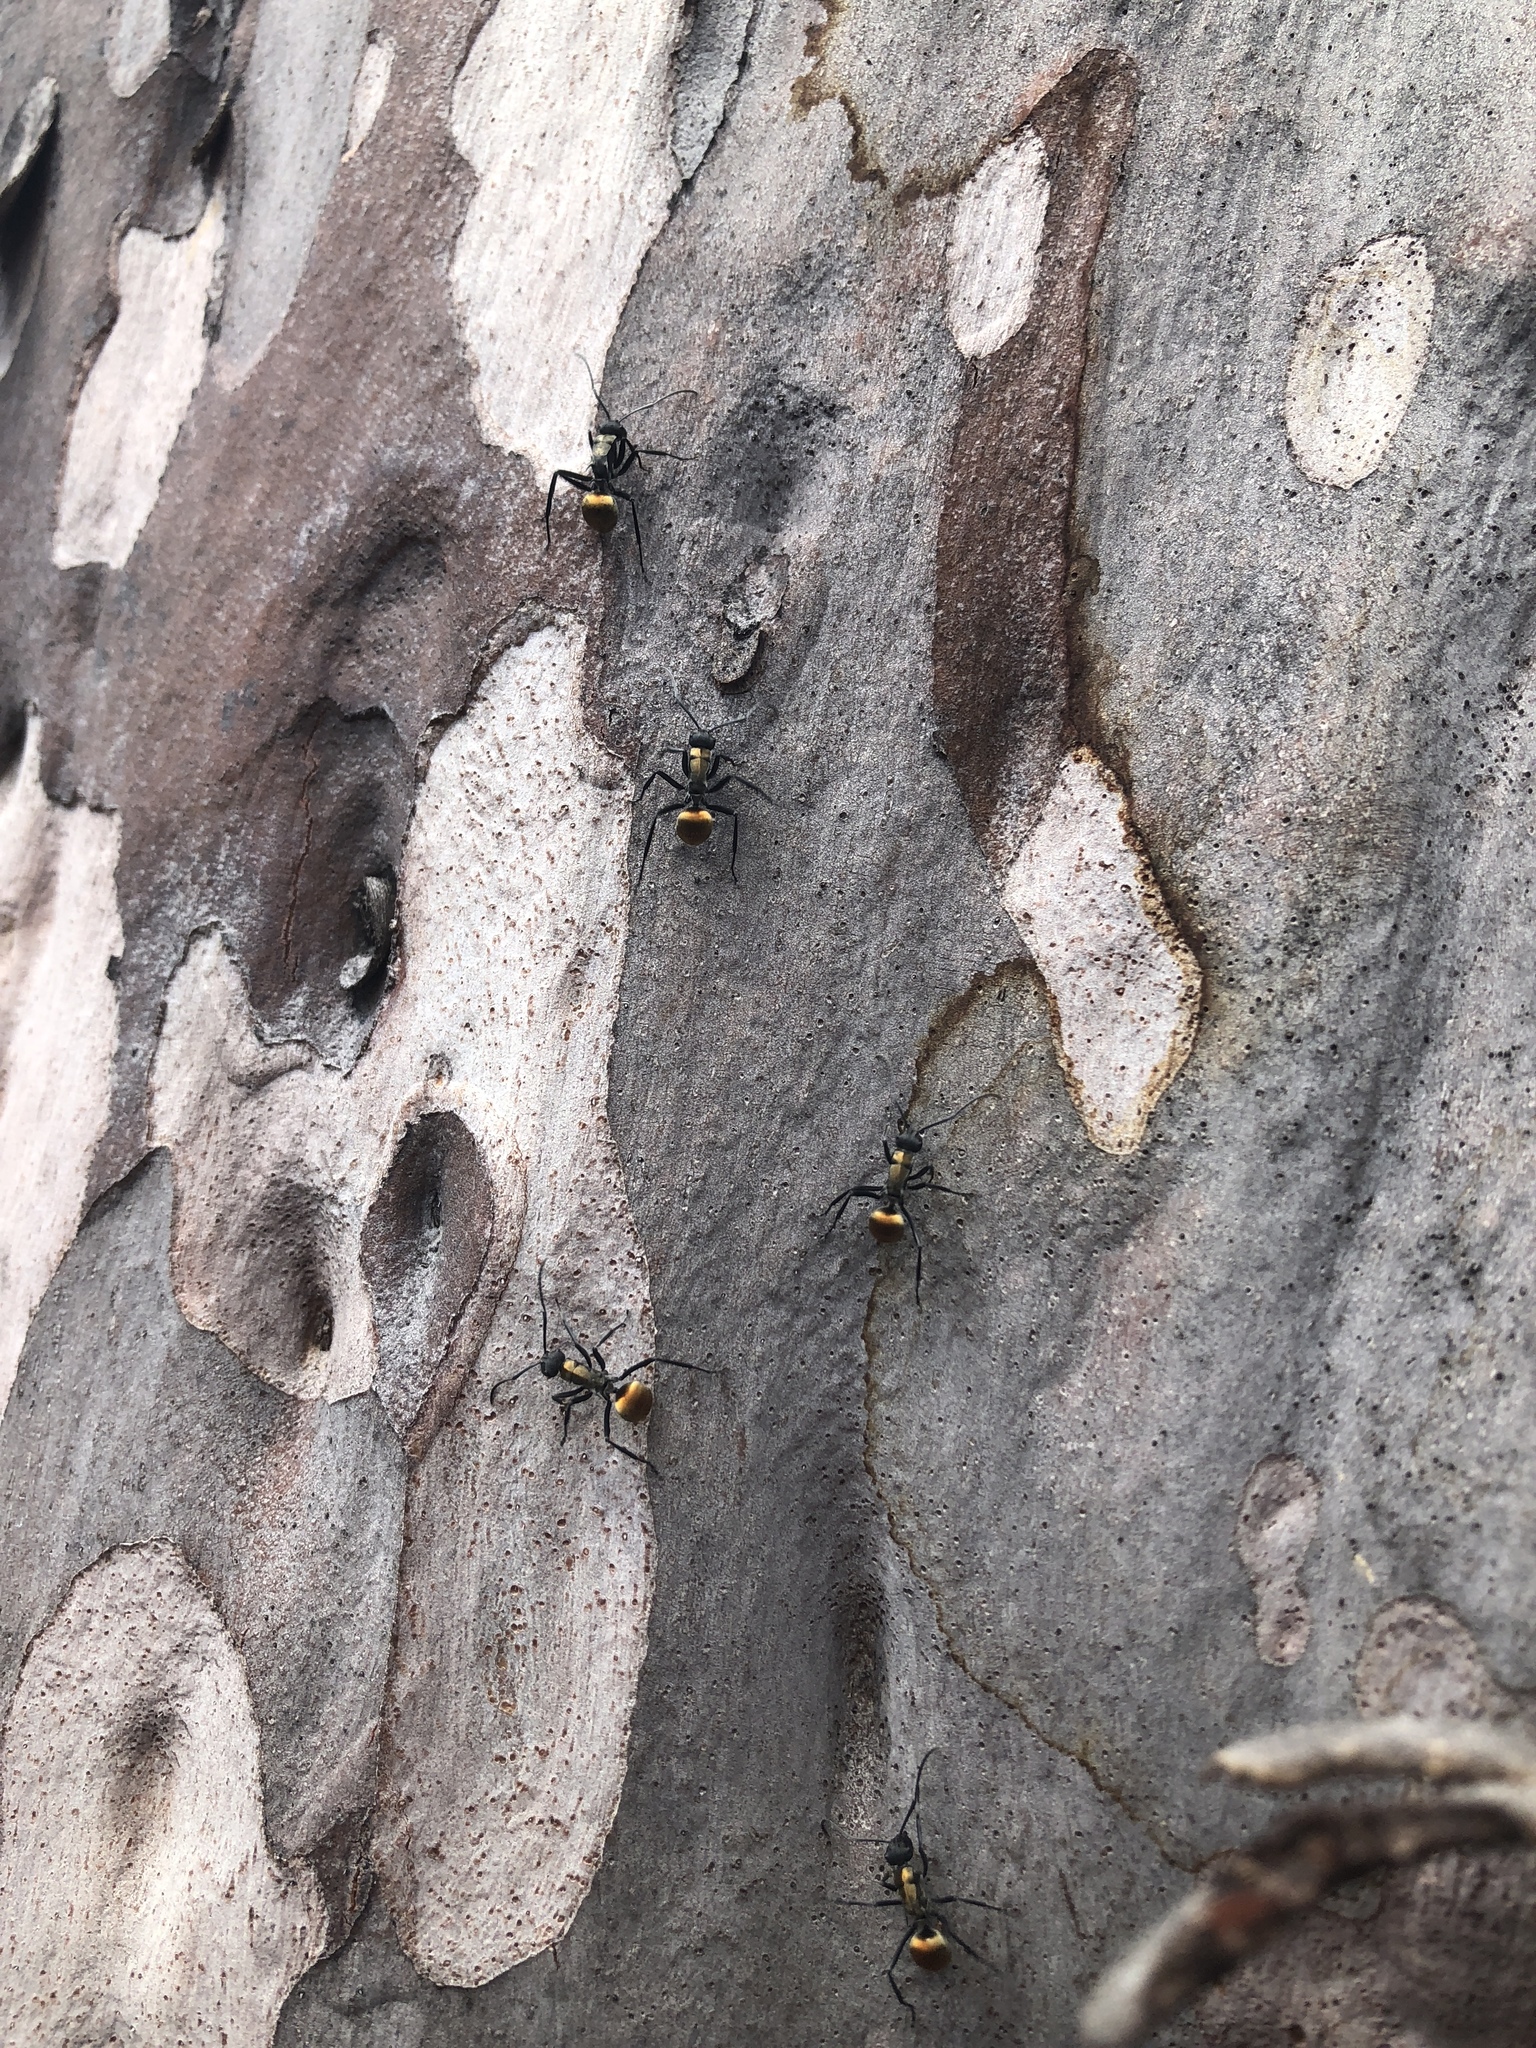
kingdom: Animalia
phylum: Arthropoda
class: Insecta
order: Hymenoptera
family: Formicidae
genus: Polyrhachis
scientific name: Polyrhachis ammon
